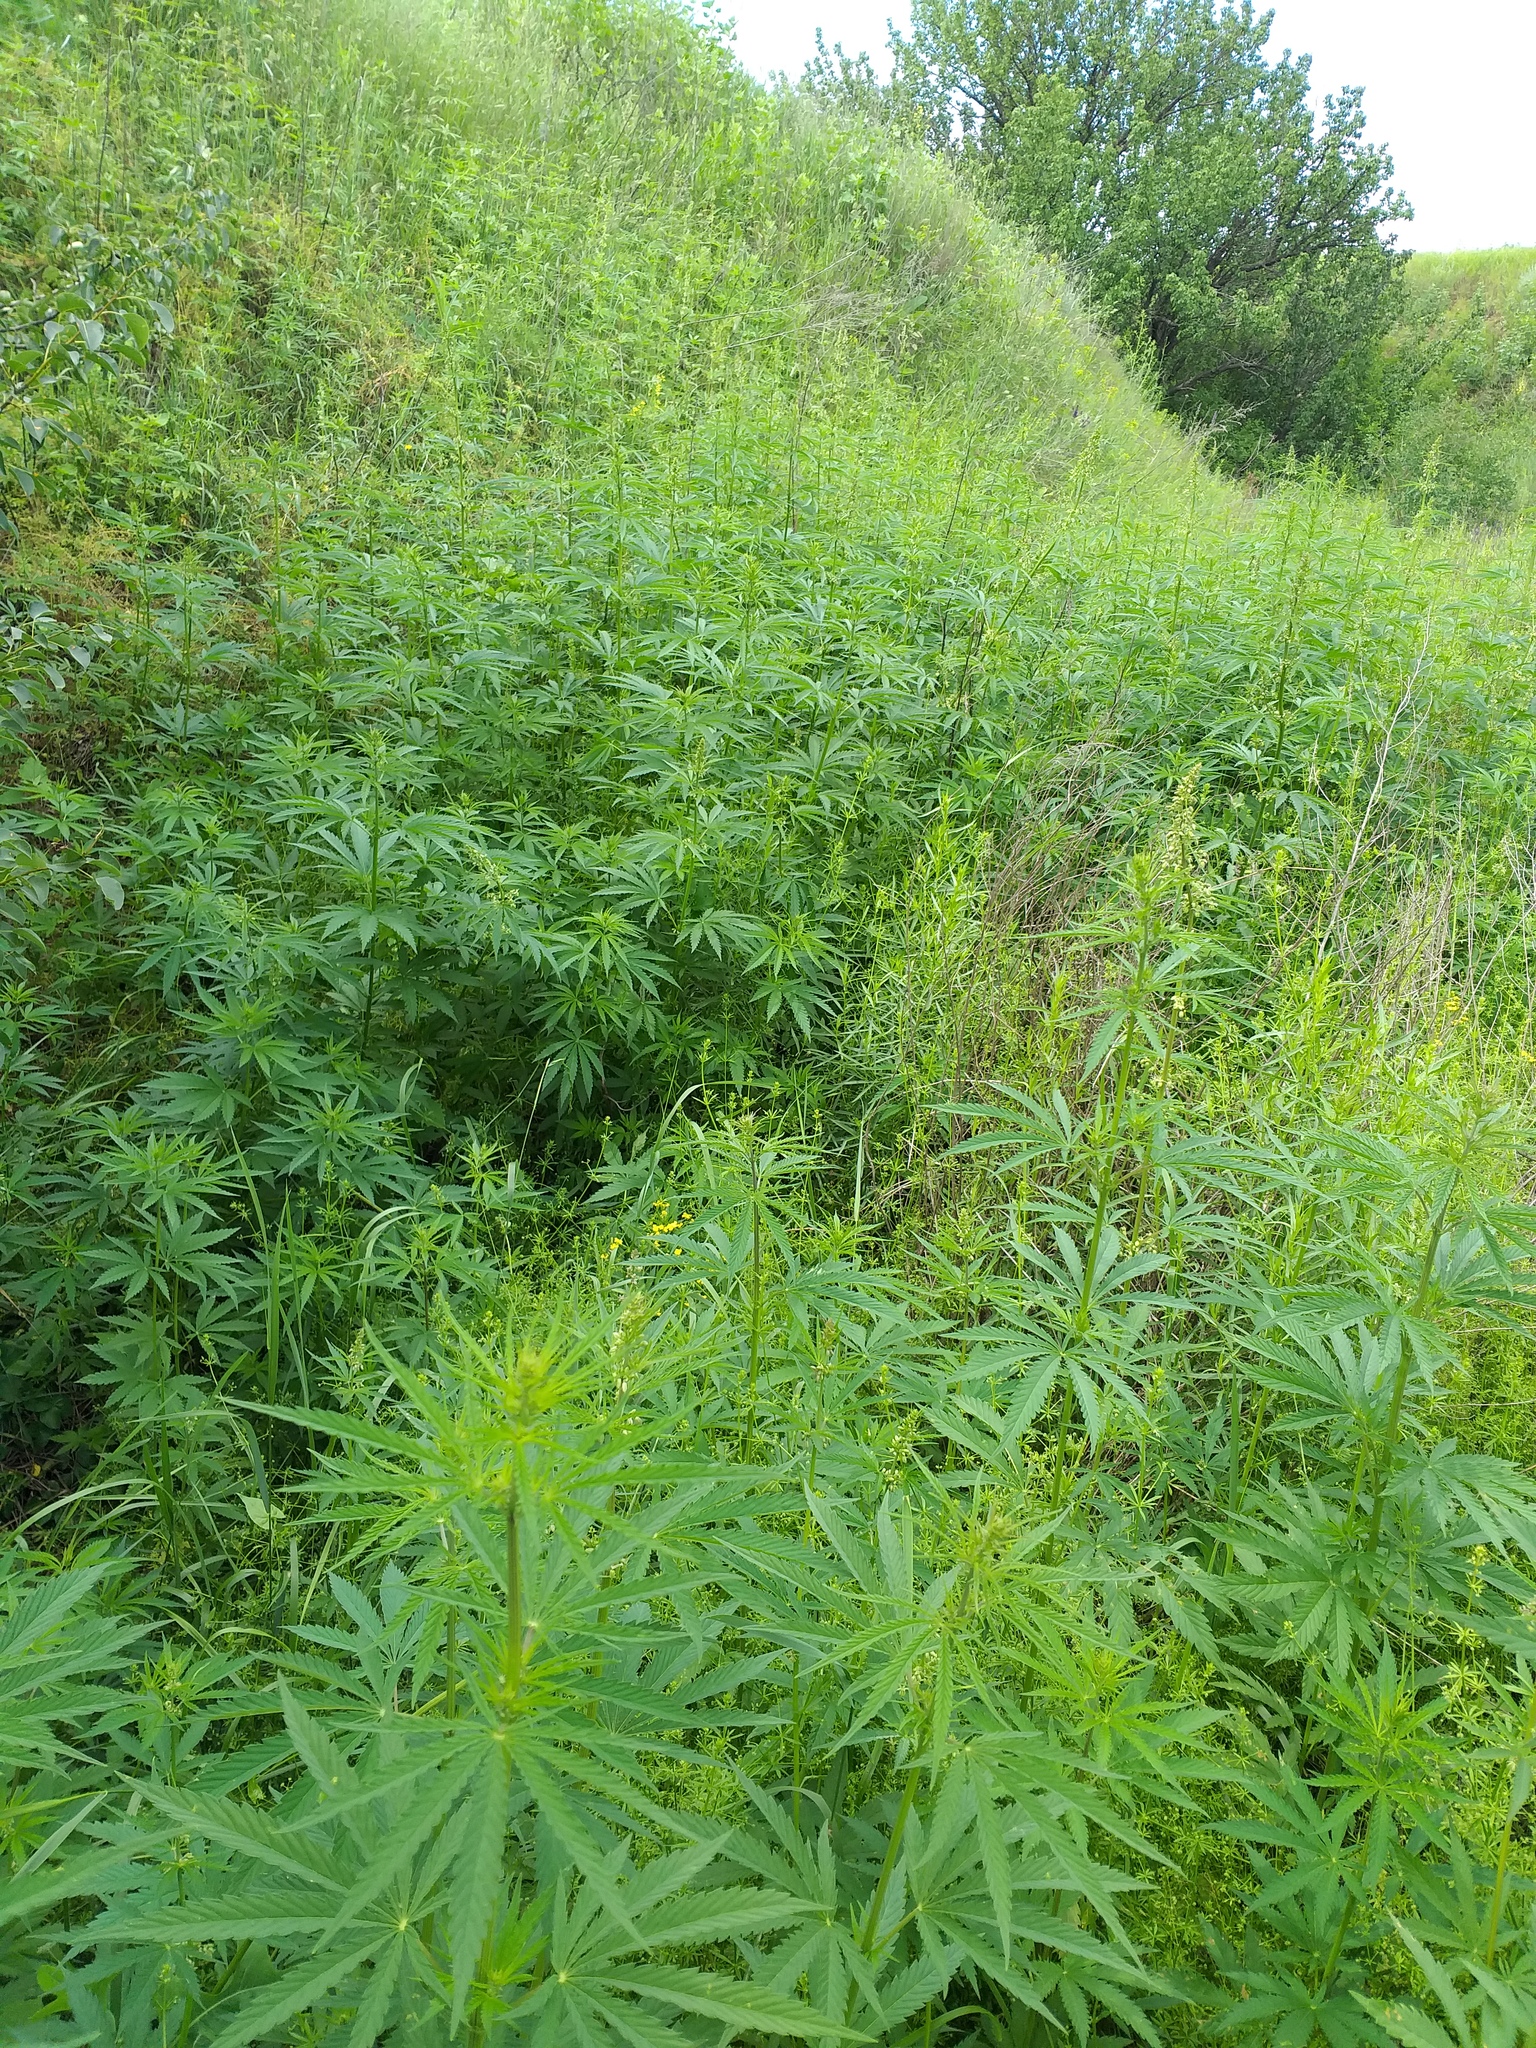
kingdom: Plantae
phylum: Tracheophyta
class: Magnoliopsida
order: Rosales
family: Cannabaceae
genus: Cannabis
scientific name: Cannabis sativa
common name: Hemp
